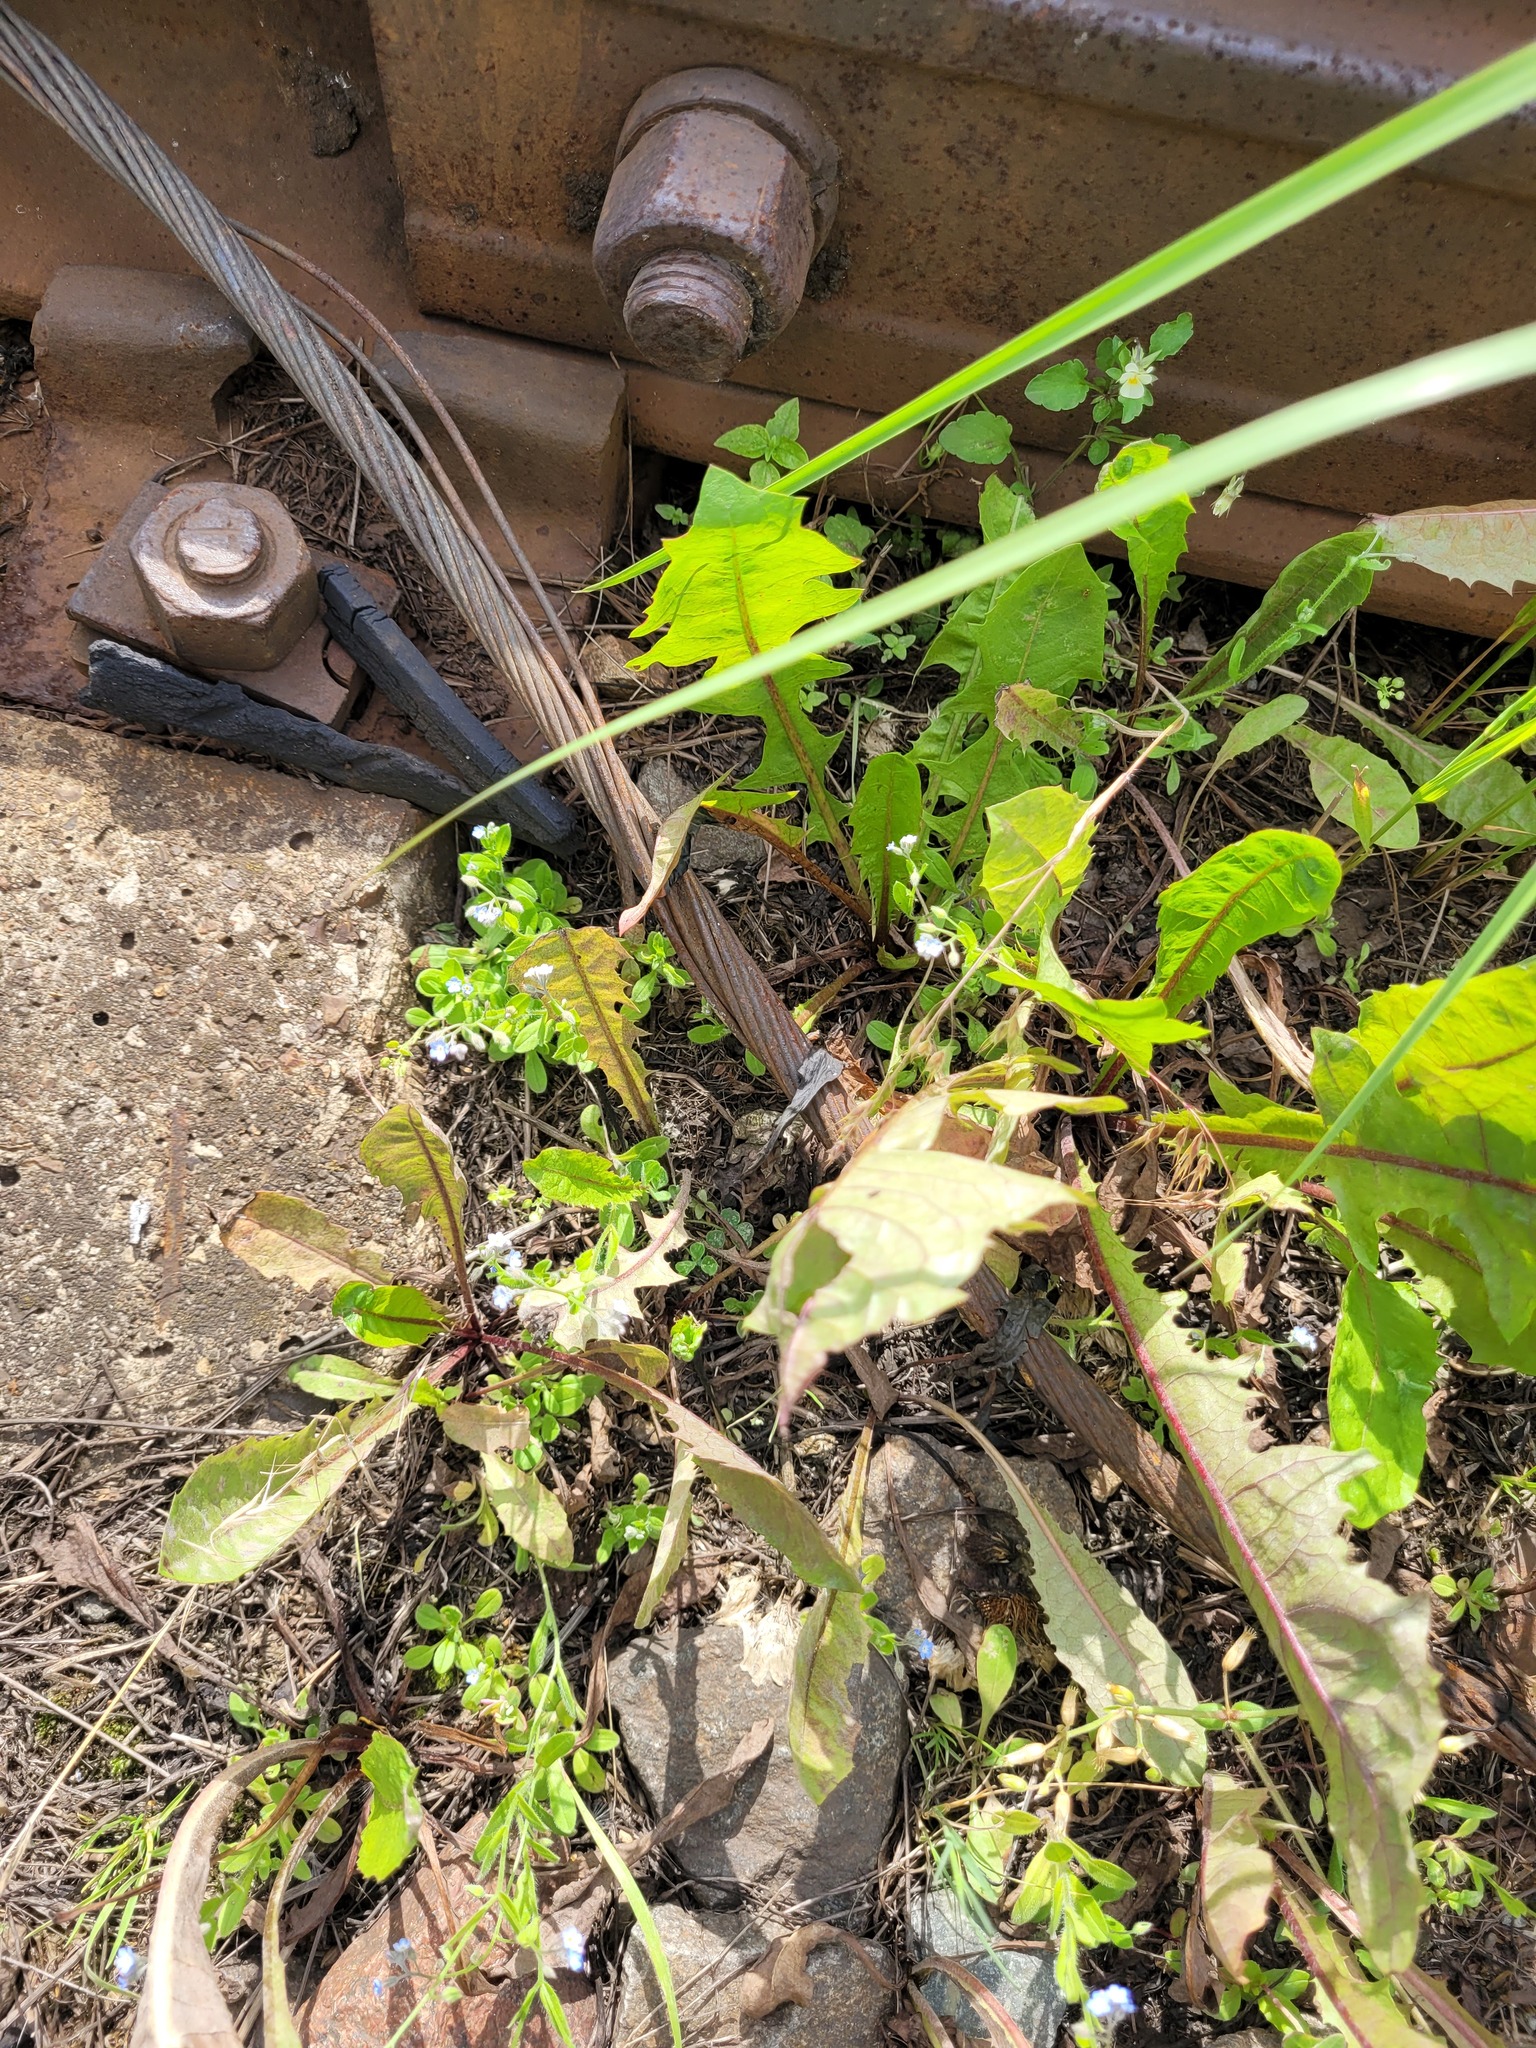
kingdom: Plantae
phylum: Tracheophyta
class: Magnoliopsida
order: Boraginales
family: Boraginaceae
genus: Myosotis
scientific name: Myosotis arvensis
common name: Field forget-me-not
